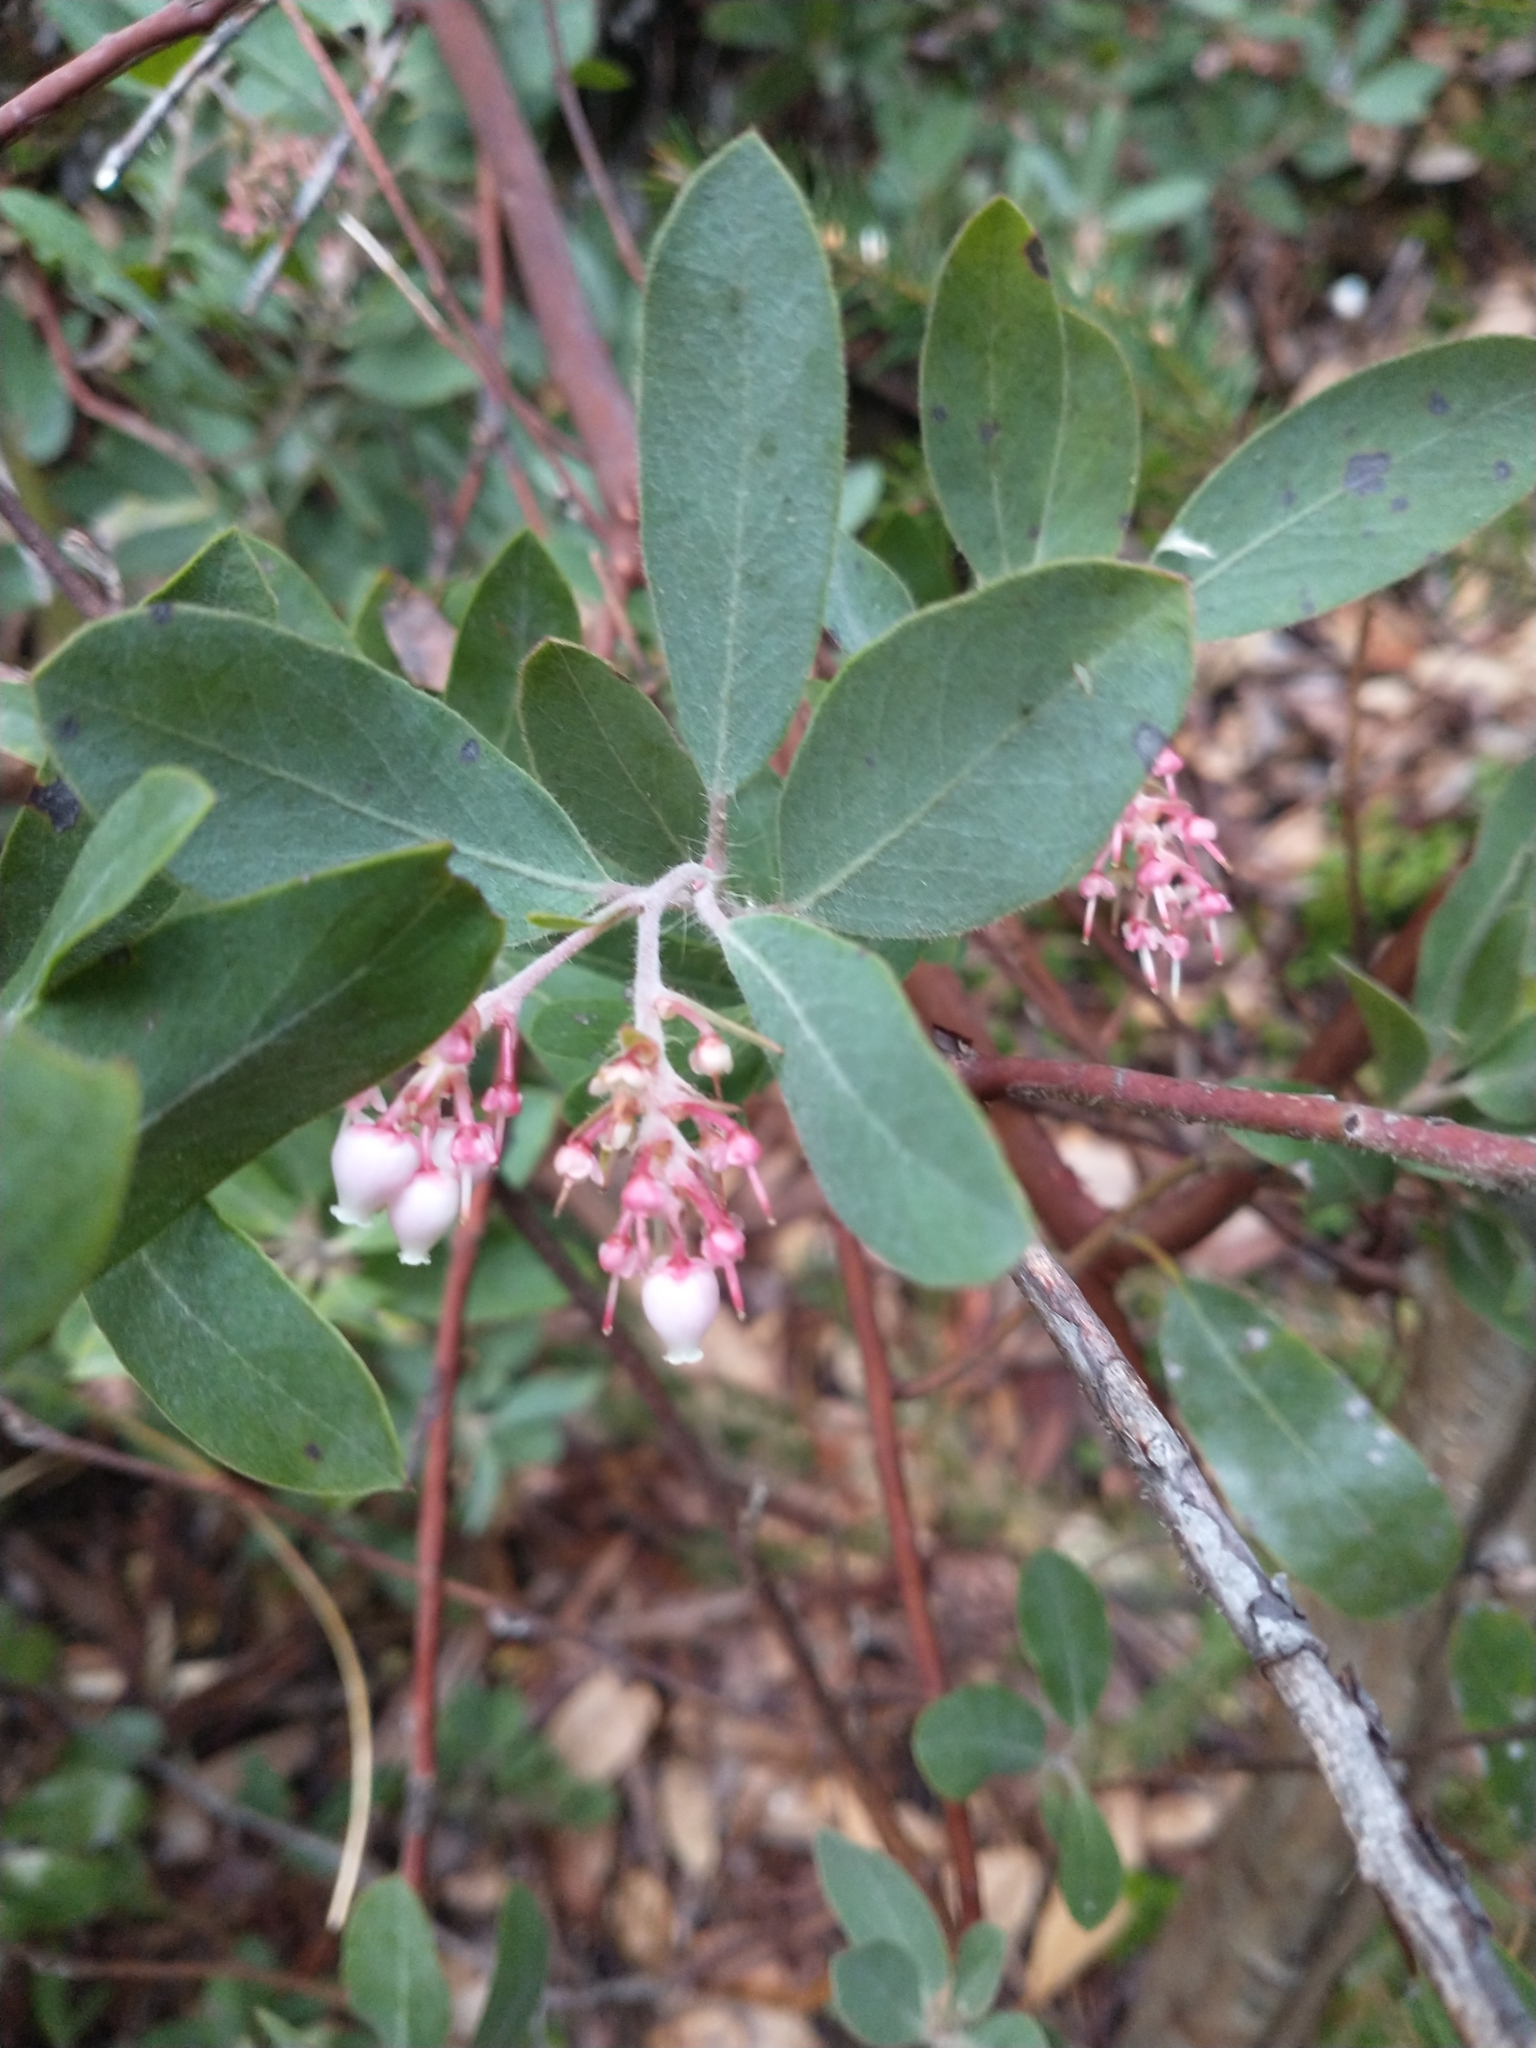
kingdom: Plantae
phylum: Tracheophyta
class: Magnoliopsida
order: Ericales
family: Ericaceae
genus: Arctostaphylos
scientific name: Arctostaphylos columbiana
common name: Bristly bearberry
